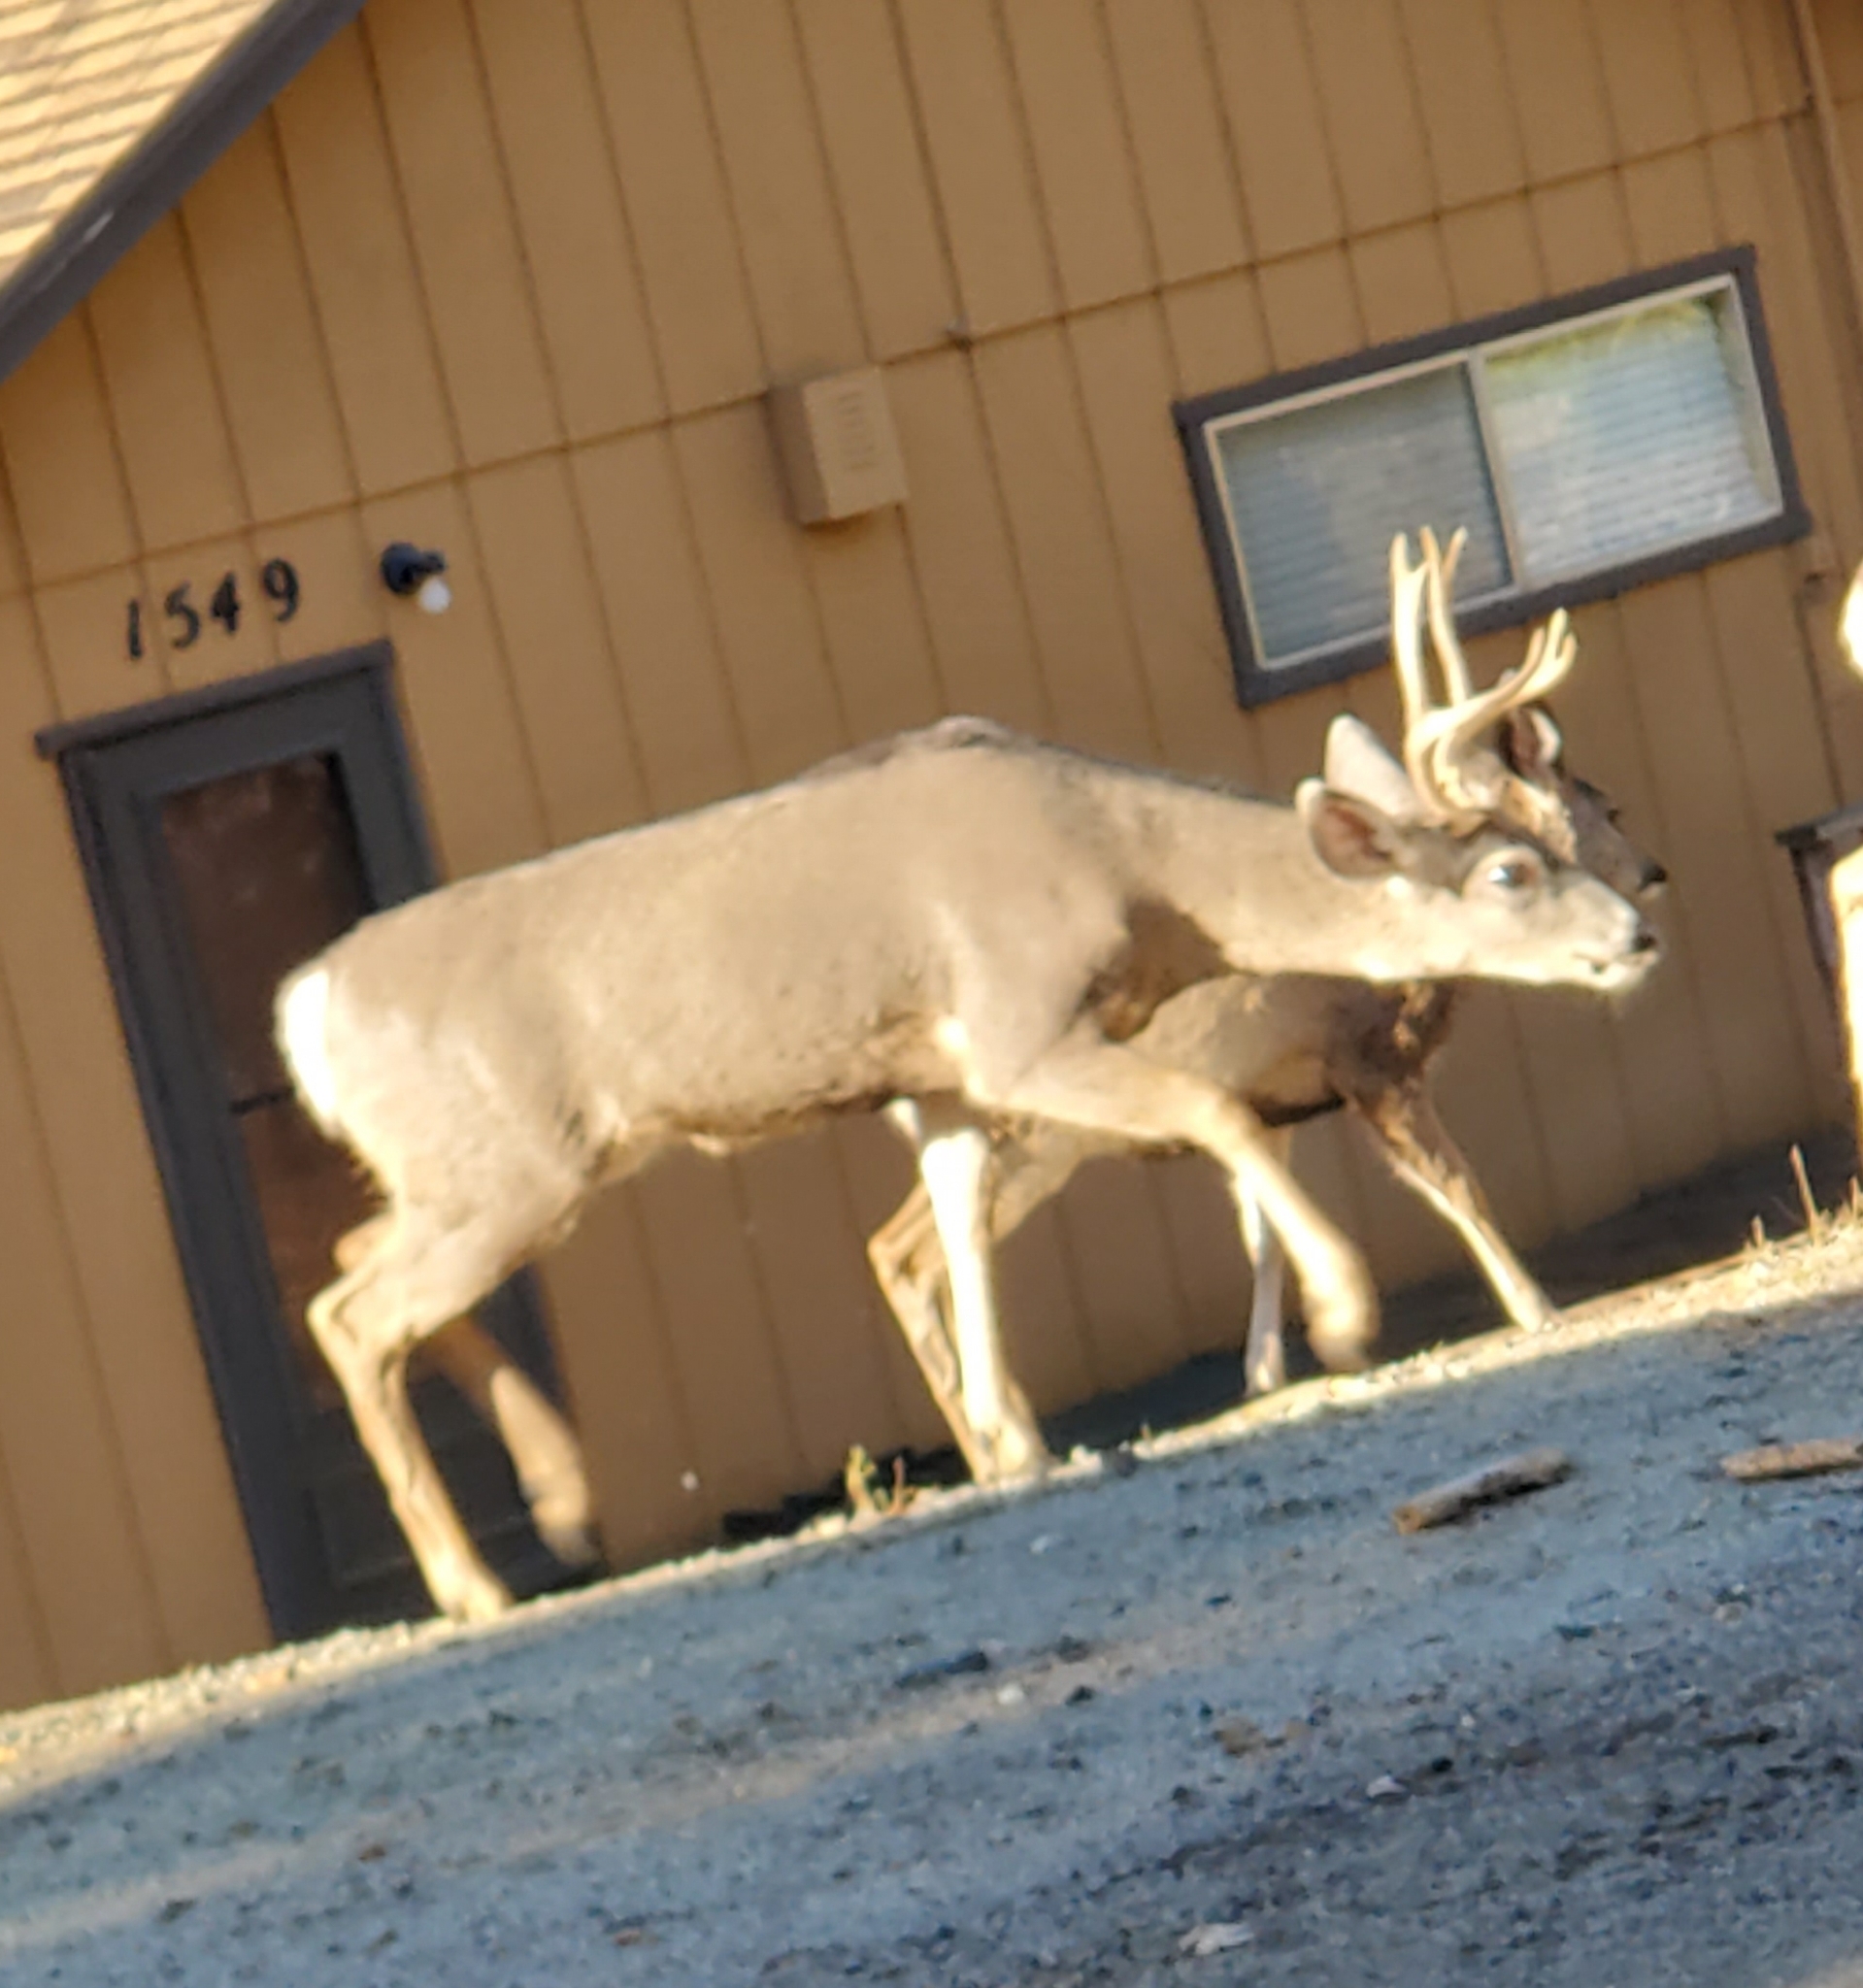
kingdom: Animalia
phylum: Chordata
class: Mammalia
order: Artiodactyla
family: Cervidae
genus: Odocoileus
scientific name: Odocoileus hemionus
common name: Mule deer
